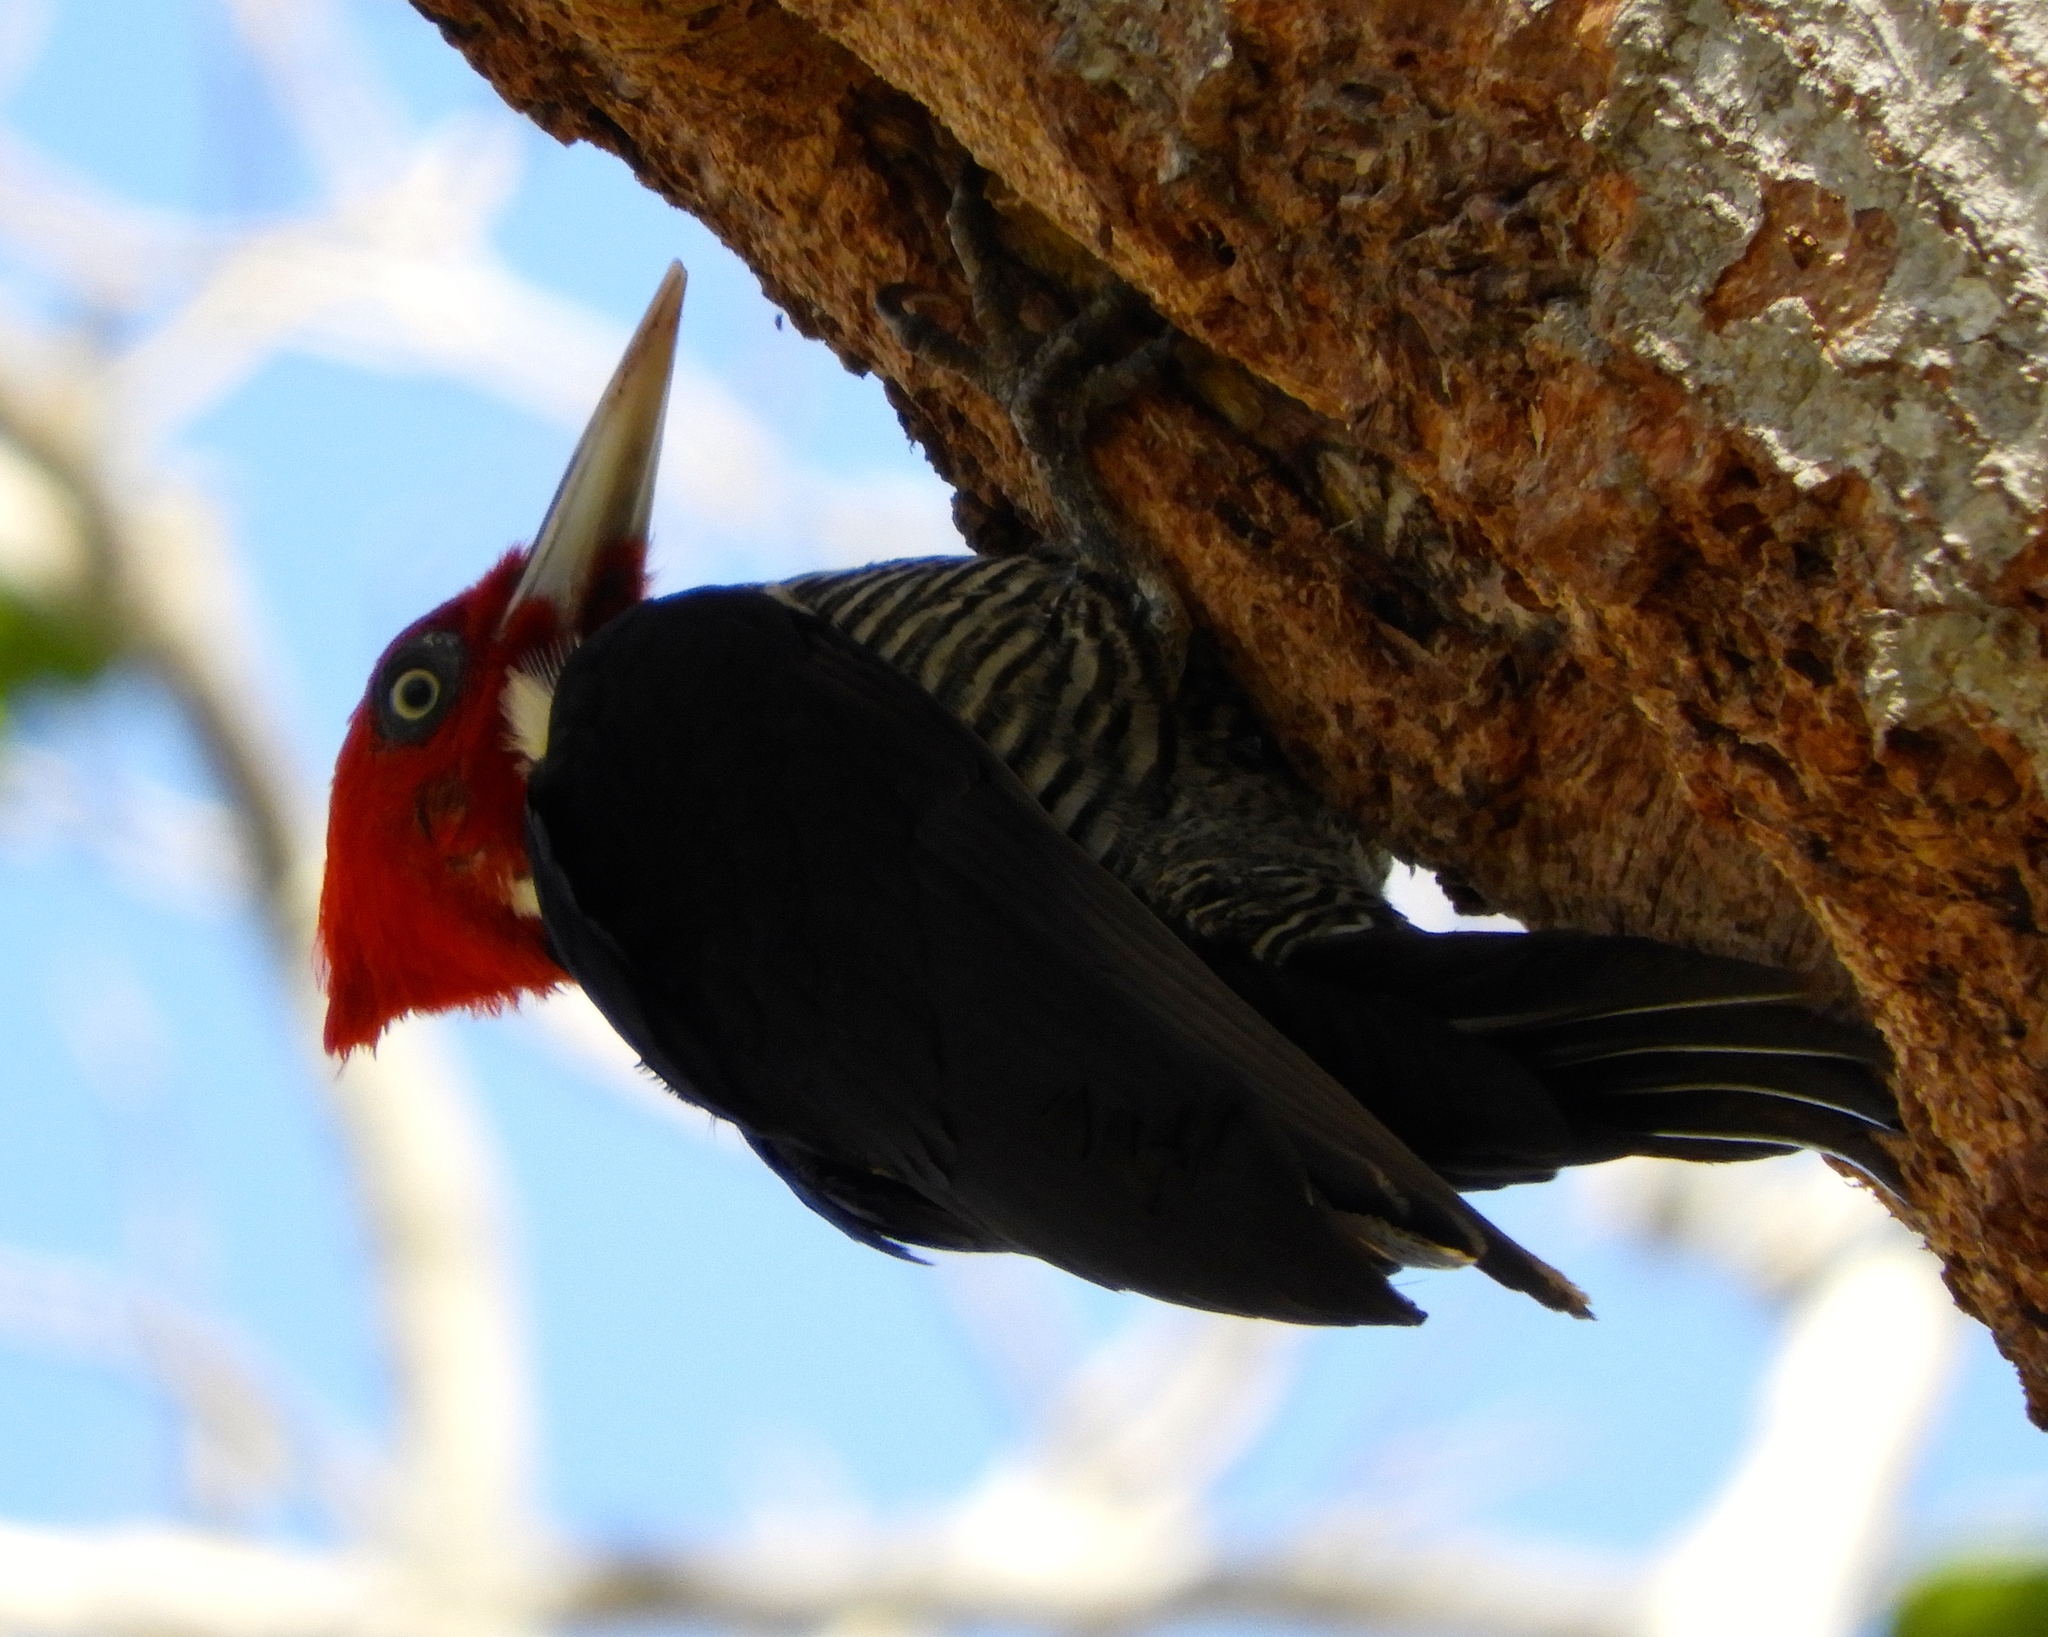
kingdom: Animalia
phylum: Chordata
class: Aves
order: Piciformes
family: Picidae
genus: Campephilus
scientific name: Campephilus guatemalensis
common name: Pale-billed woodpecker
